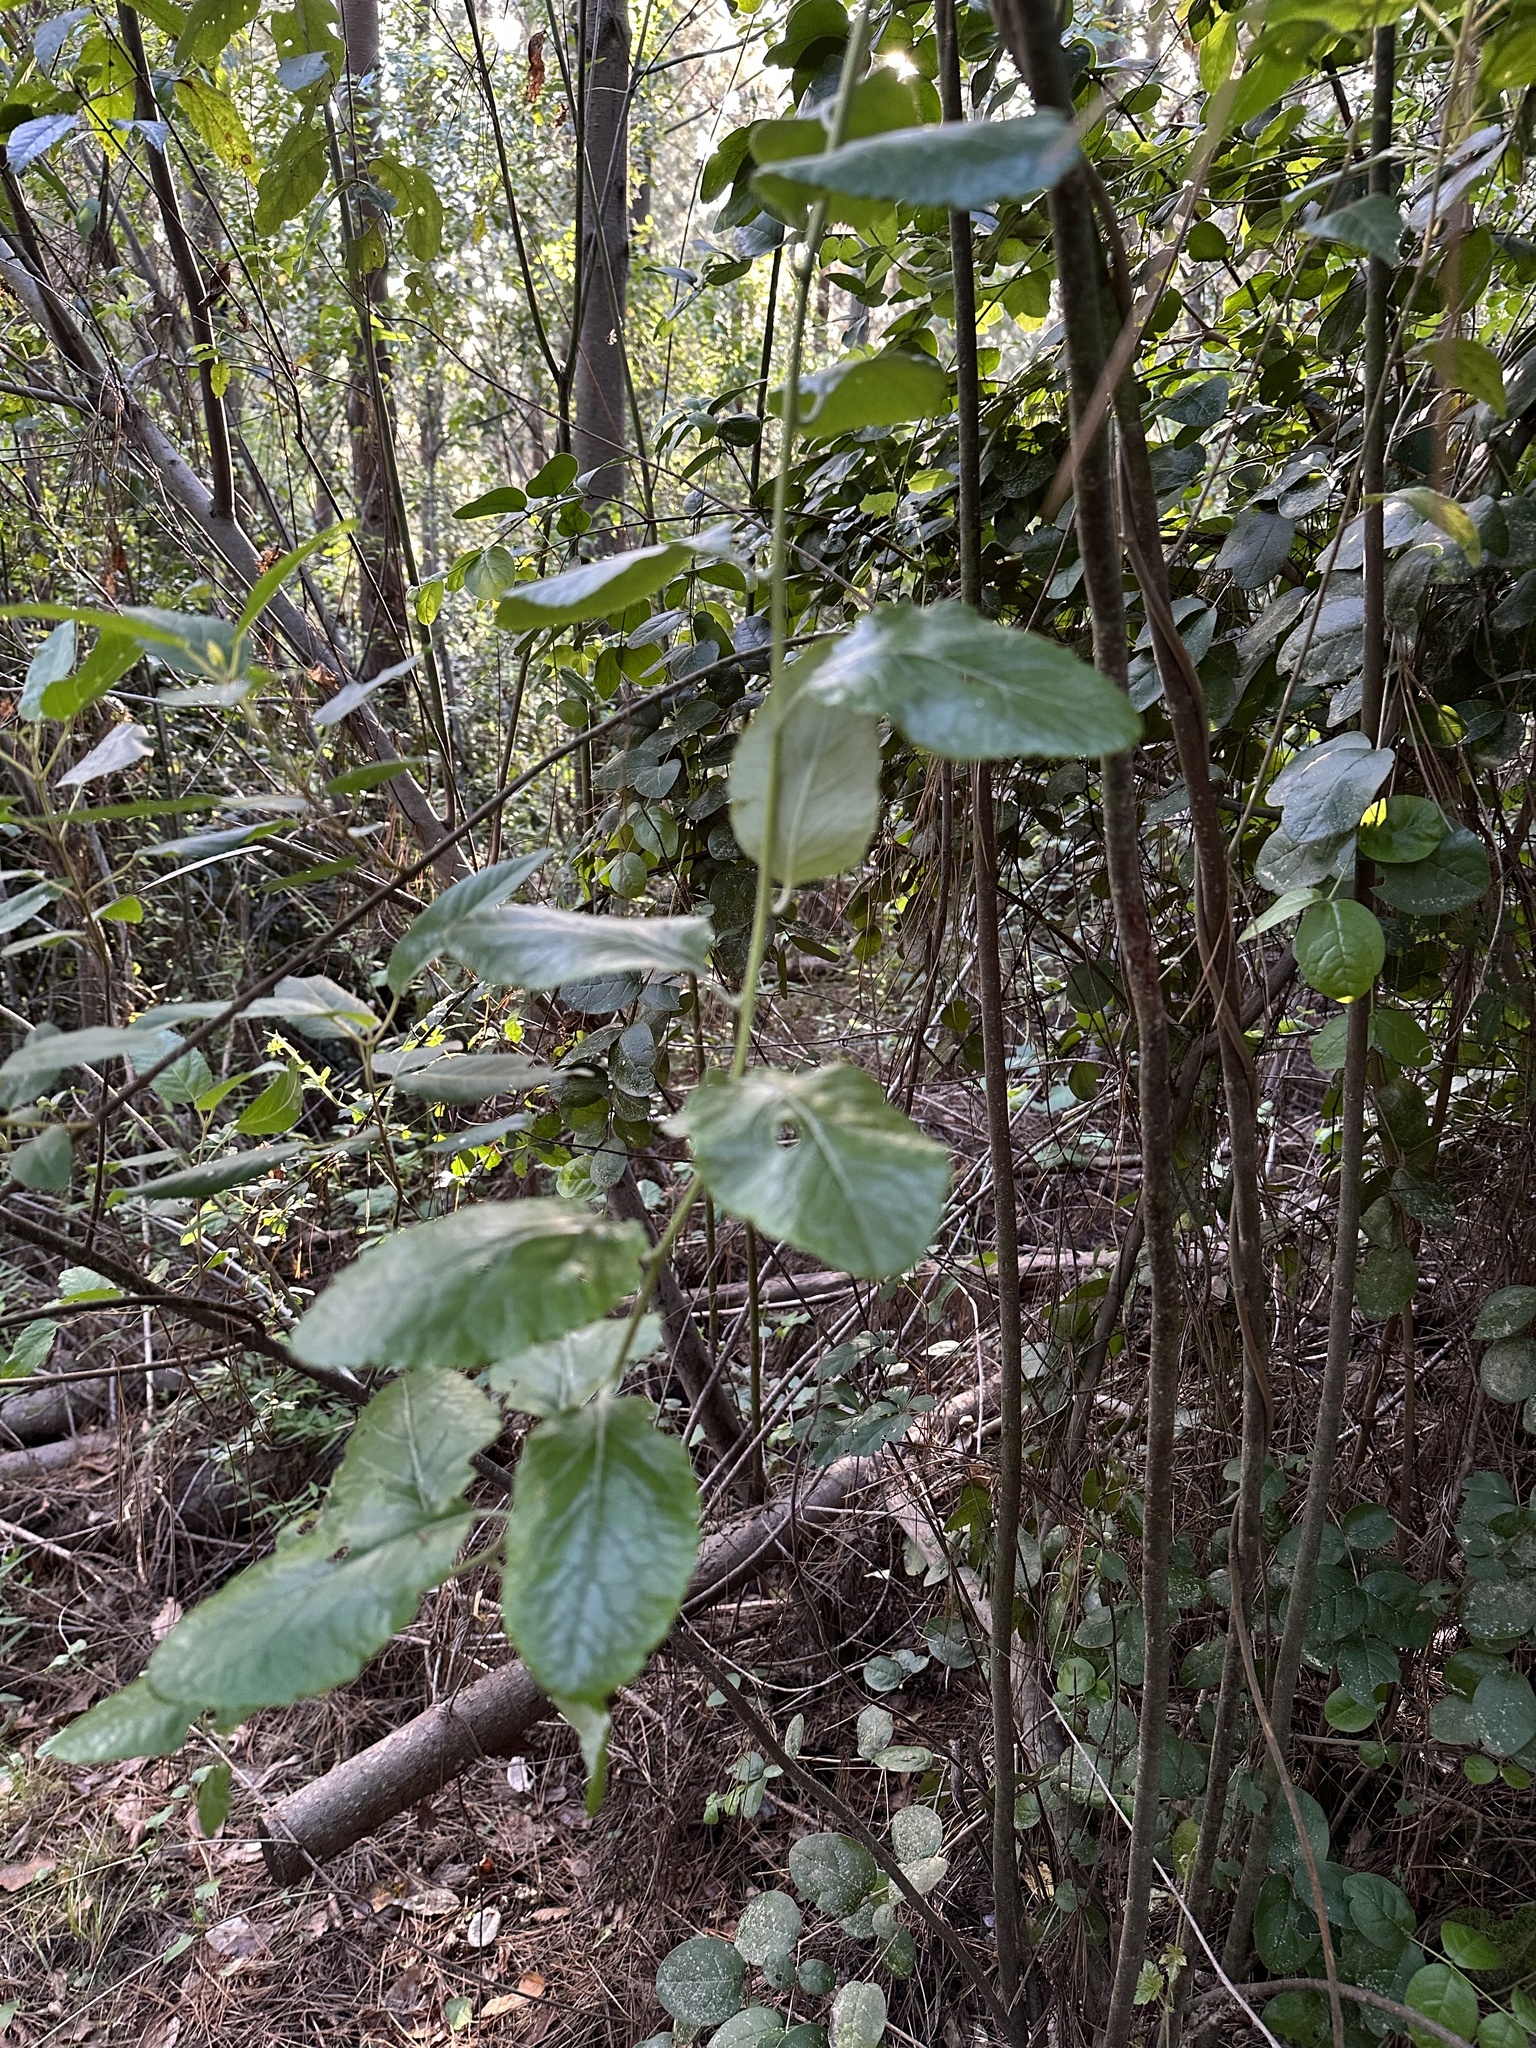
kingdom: Plantae
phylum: Tracheophyta
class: Magnoliopsida
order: Asterales
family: Asteraceae
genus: Proustia
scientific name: Proustia pyrifolia
